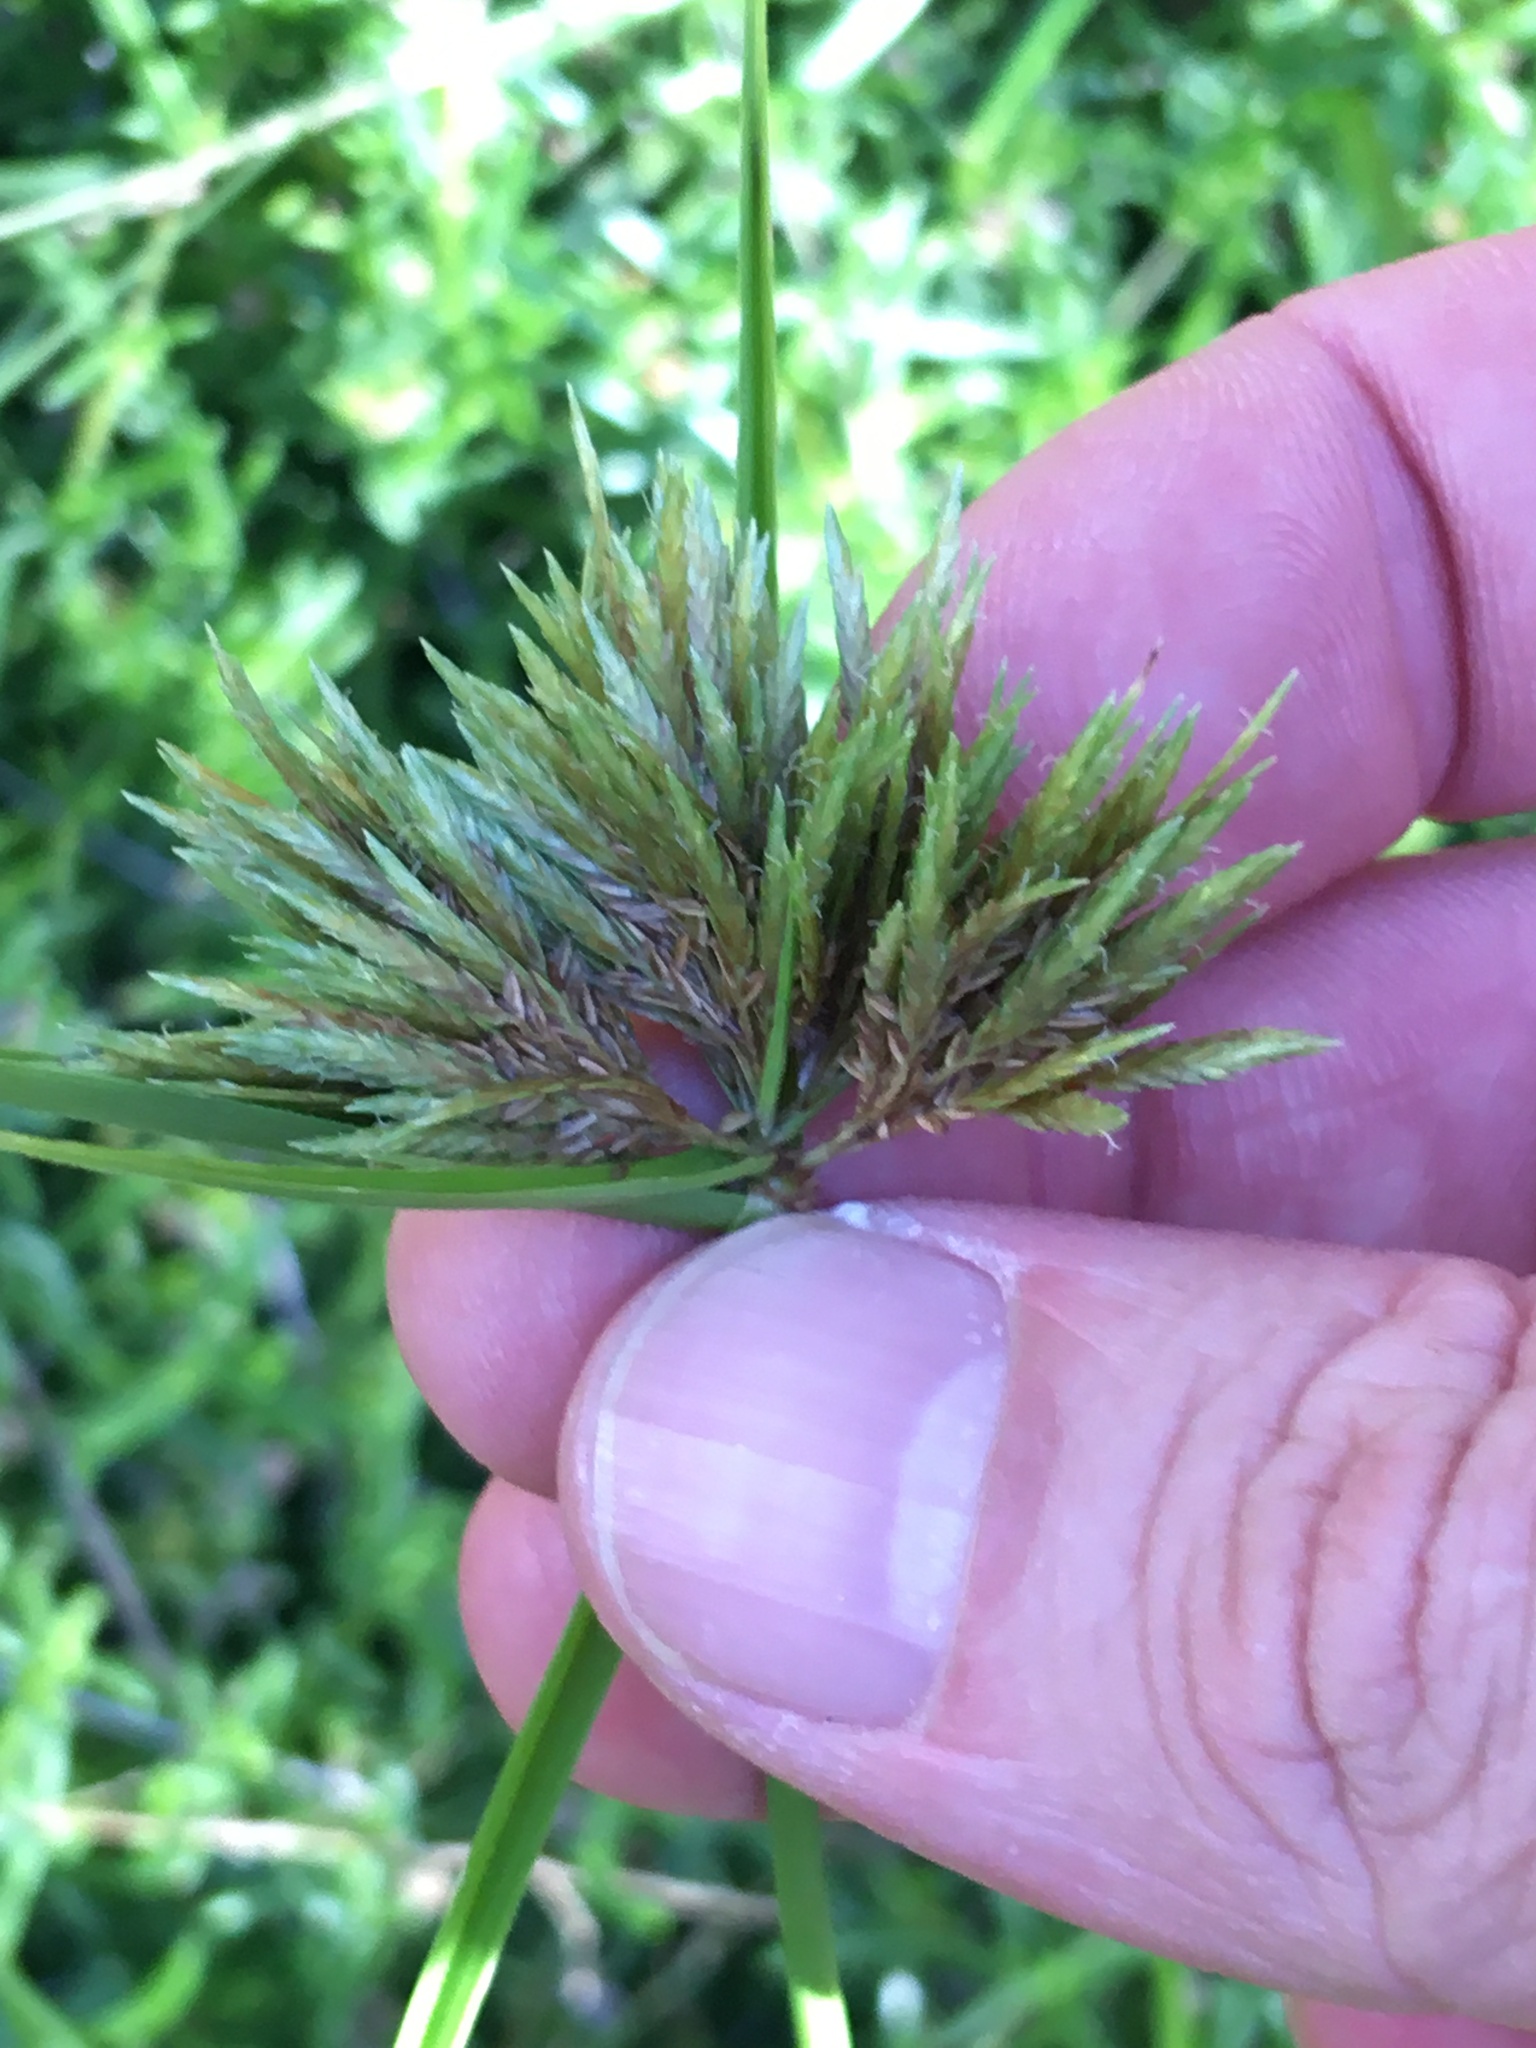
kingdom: Plantae
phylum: Tracheophyta
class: Liliopsida
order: Poales
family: Cyperaceae
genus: Cyperus
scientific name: Cyperus polystachyos
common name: Bunchy flat sedge
